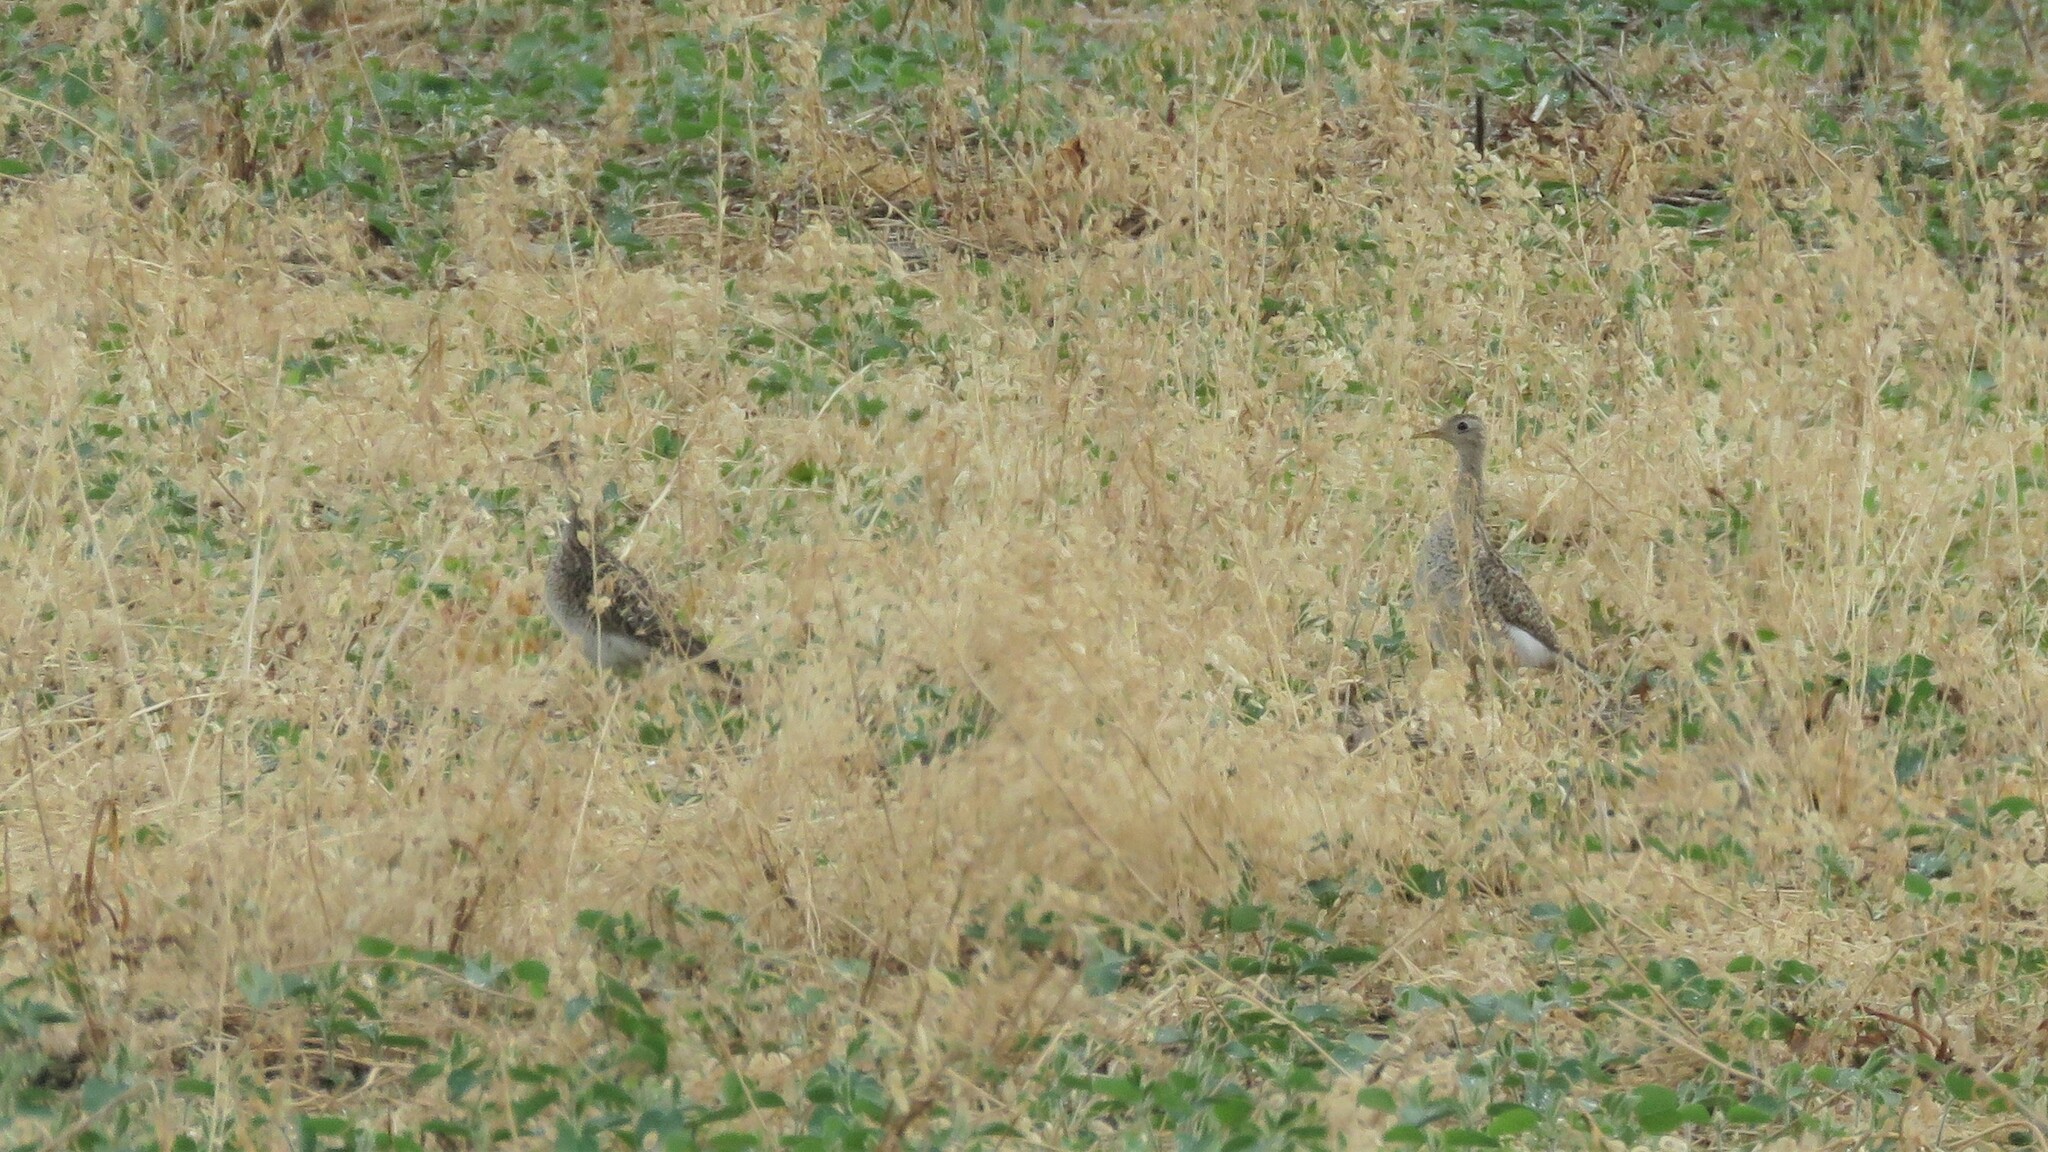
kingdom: Animalia
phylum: Chordata
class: Aves
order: Charadriiformes
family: Scolopacidae
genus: Bartramia
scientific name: Bartramia longicauda
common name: Upland sandpiper
